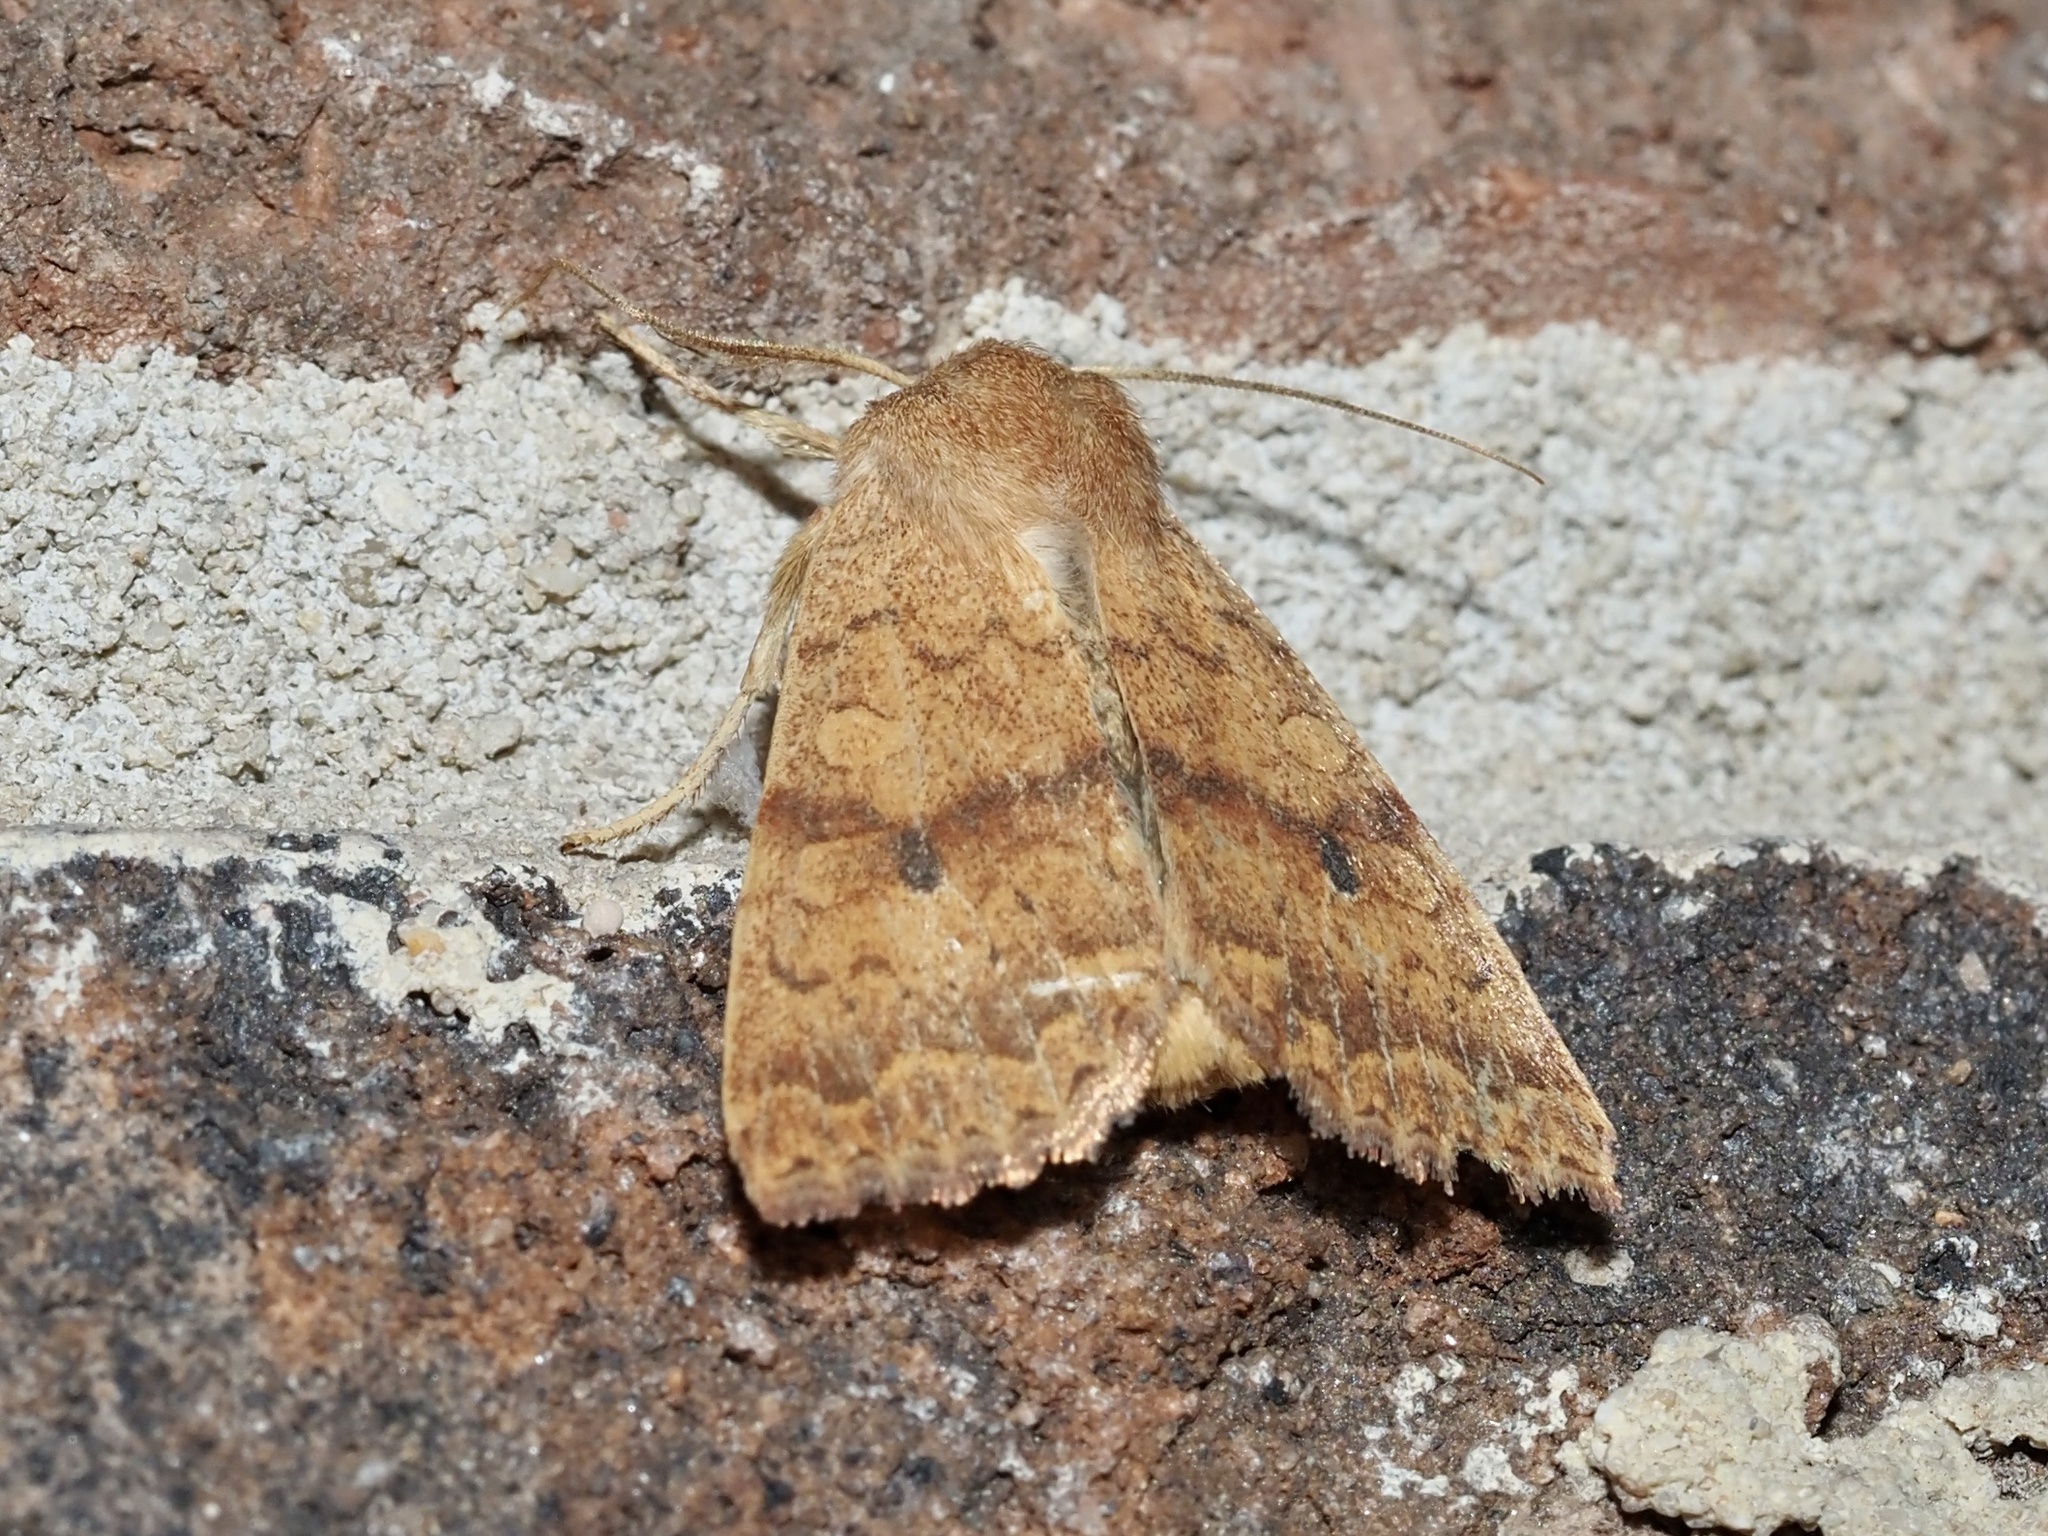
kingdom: Animalia
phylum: Arthropoda
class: Insecta
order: Lepidoptera
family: Noctuidae
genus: Agrochola
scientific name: Agrochola bicolorago
